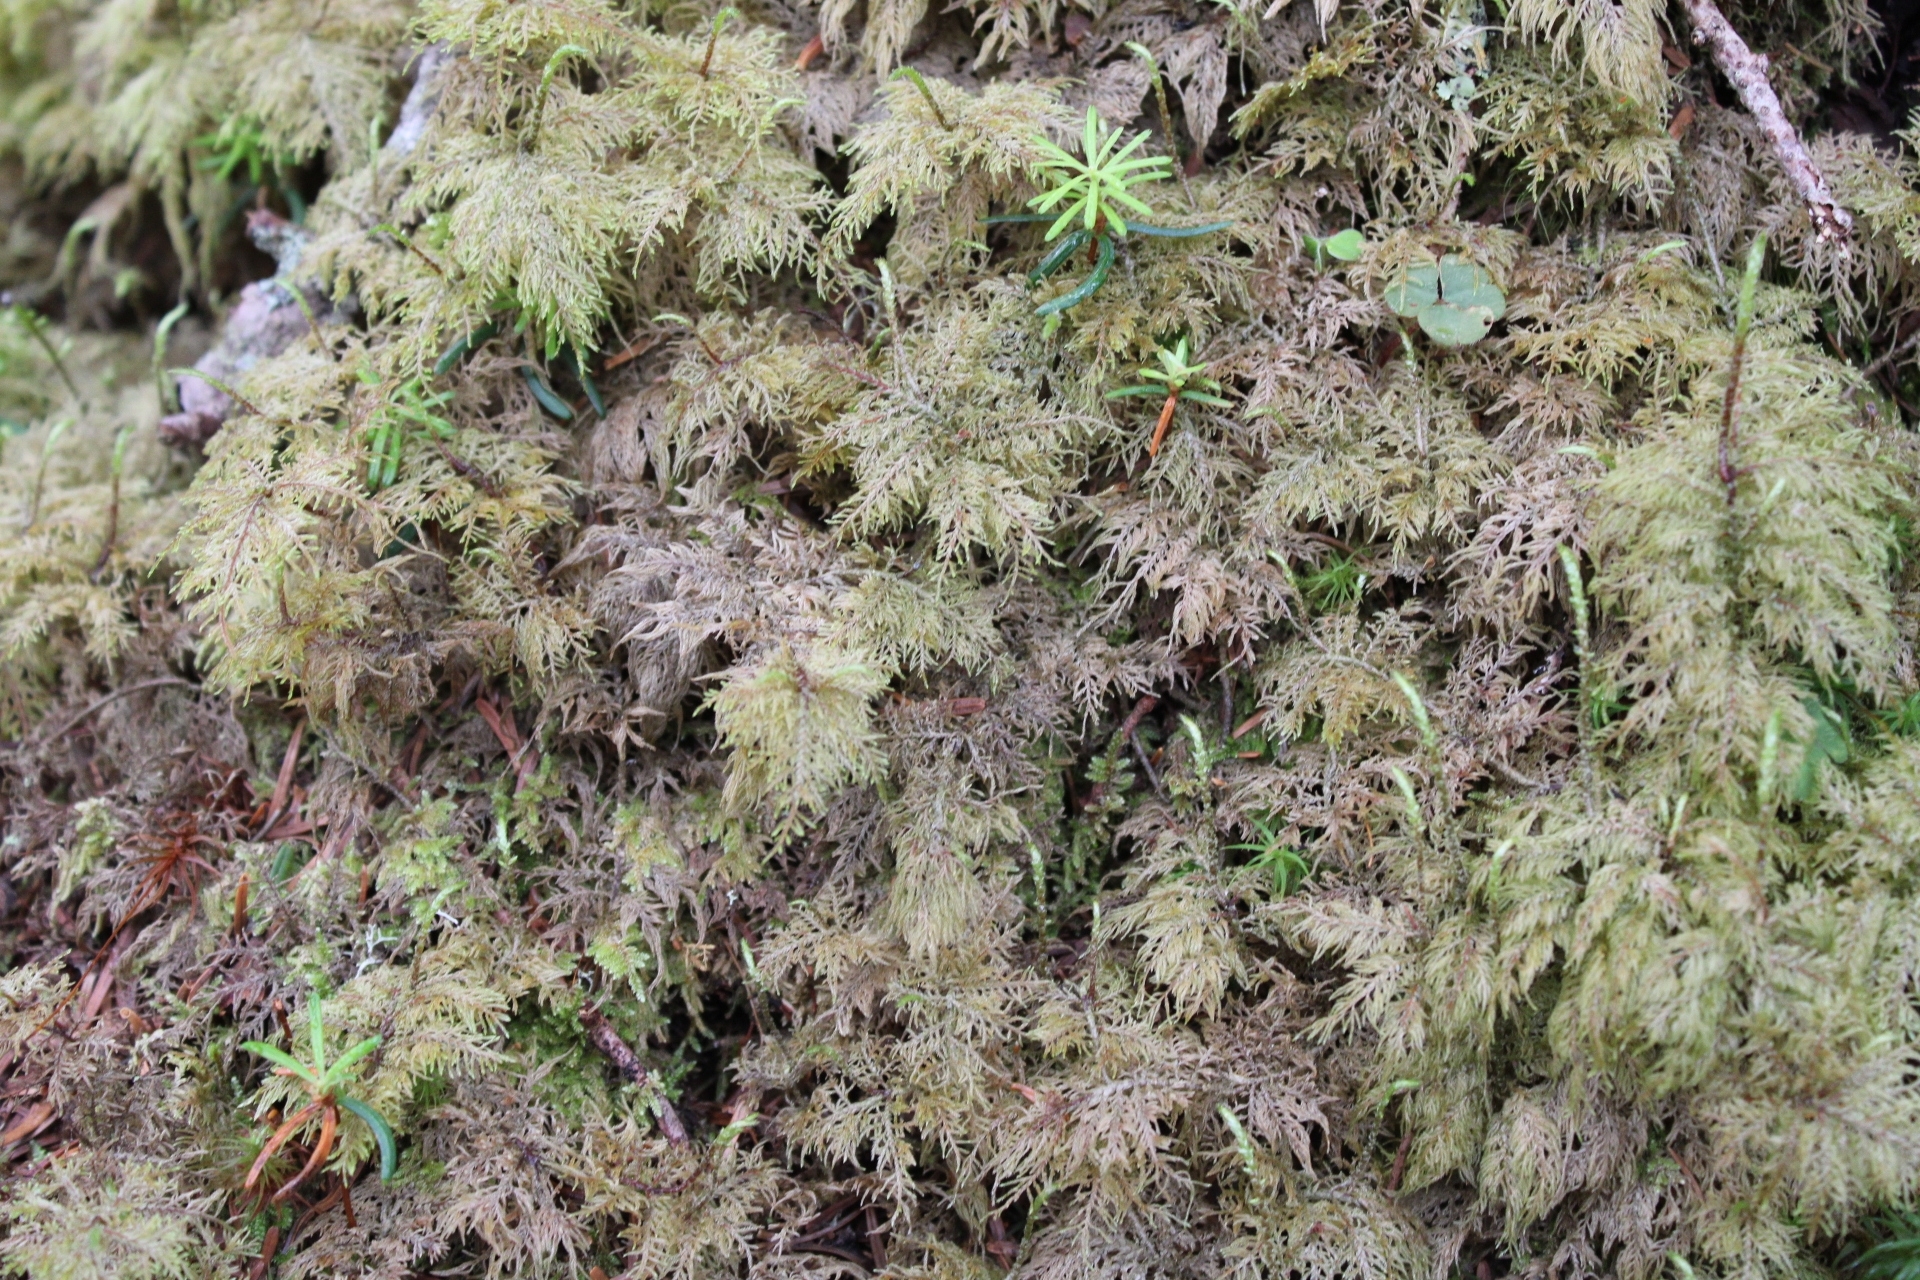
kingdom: Plantae
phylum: Bryophyta
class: Bryopsida
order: Hypnales
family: Hylocomiaceae
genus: Hylocomium
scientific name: Hylocomium splendens
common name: Stairstep moss
